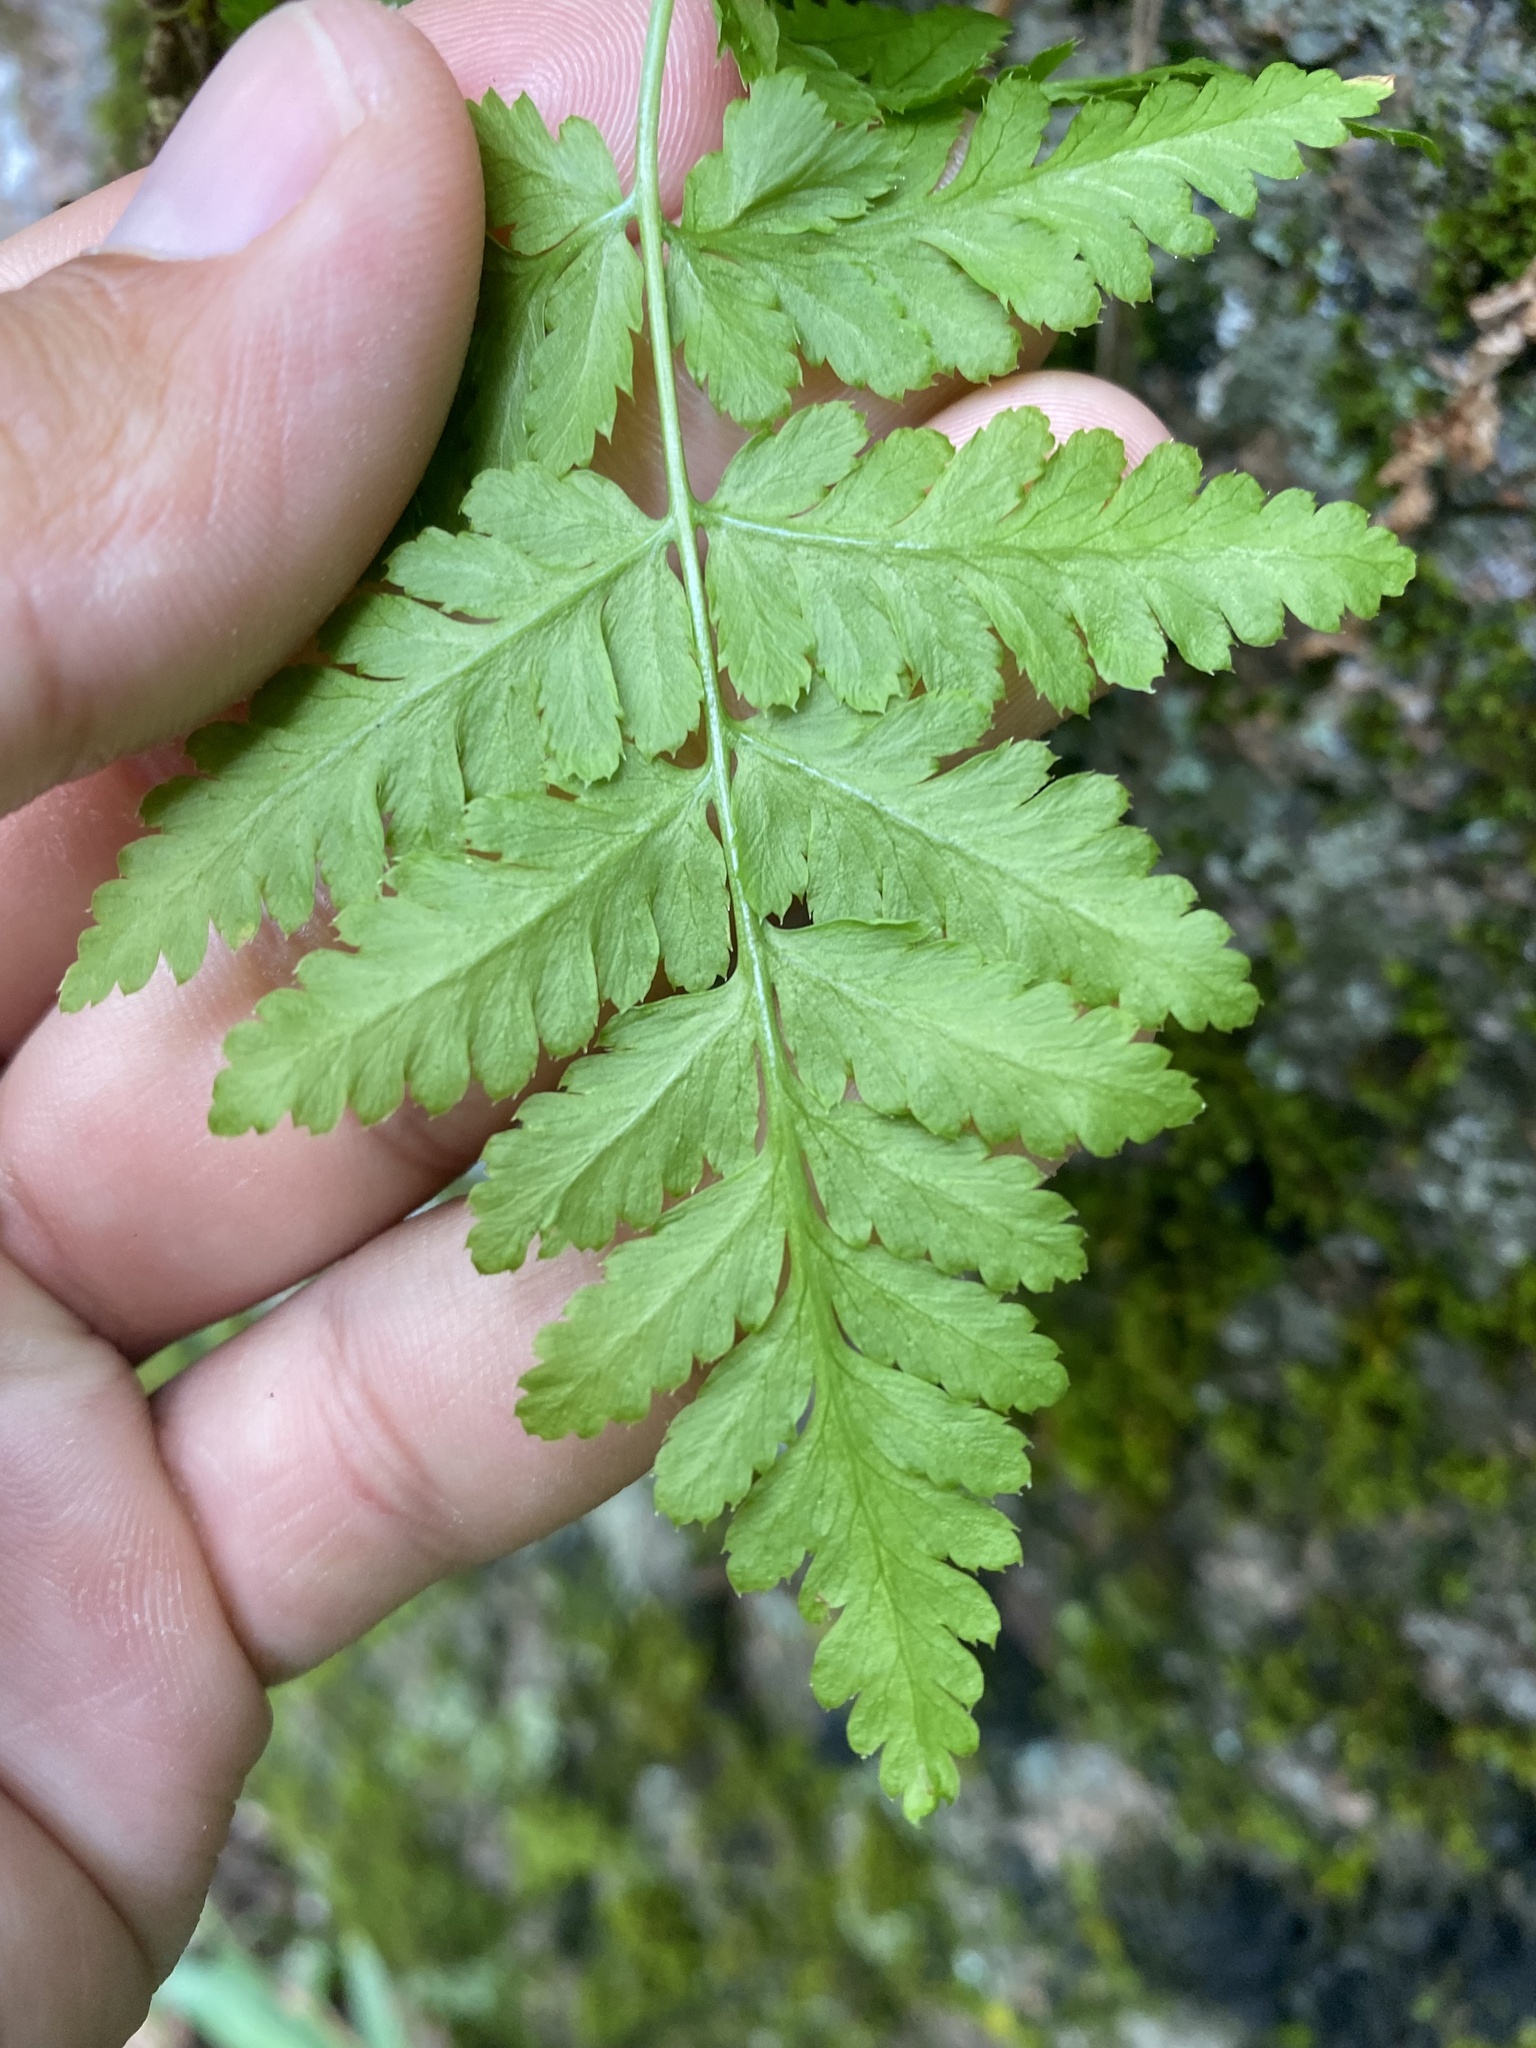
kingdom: Plantae
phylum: Tracheophyta
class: Polypodiopsida
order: Polypodiales
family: Dryopteridaceae
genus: Dryopteris
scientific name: Dryopteris expansa
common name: Northern buckler fern
